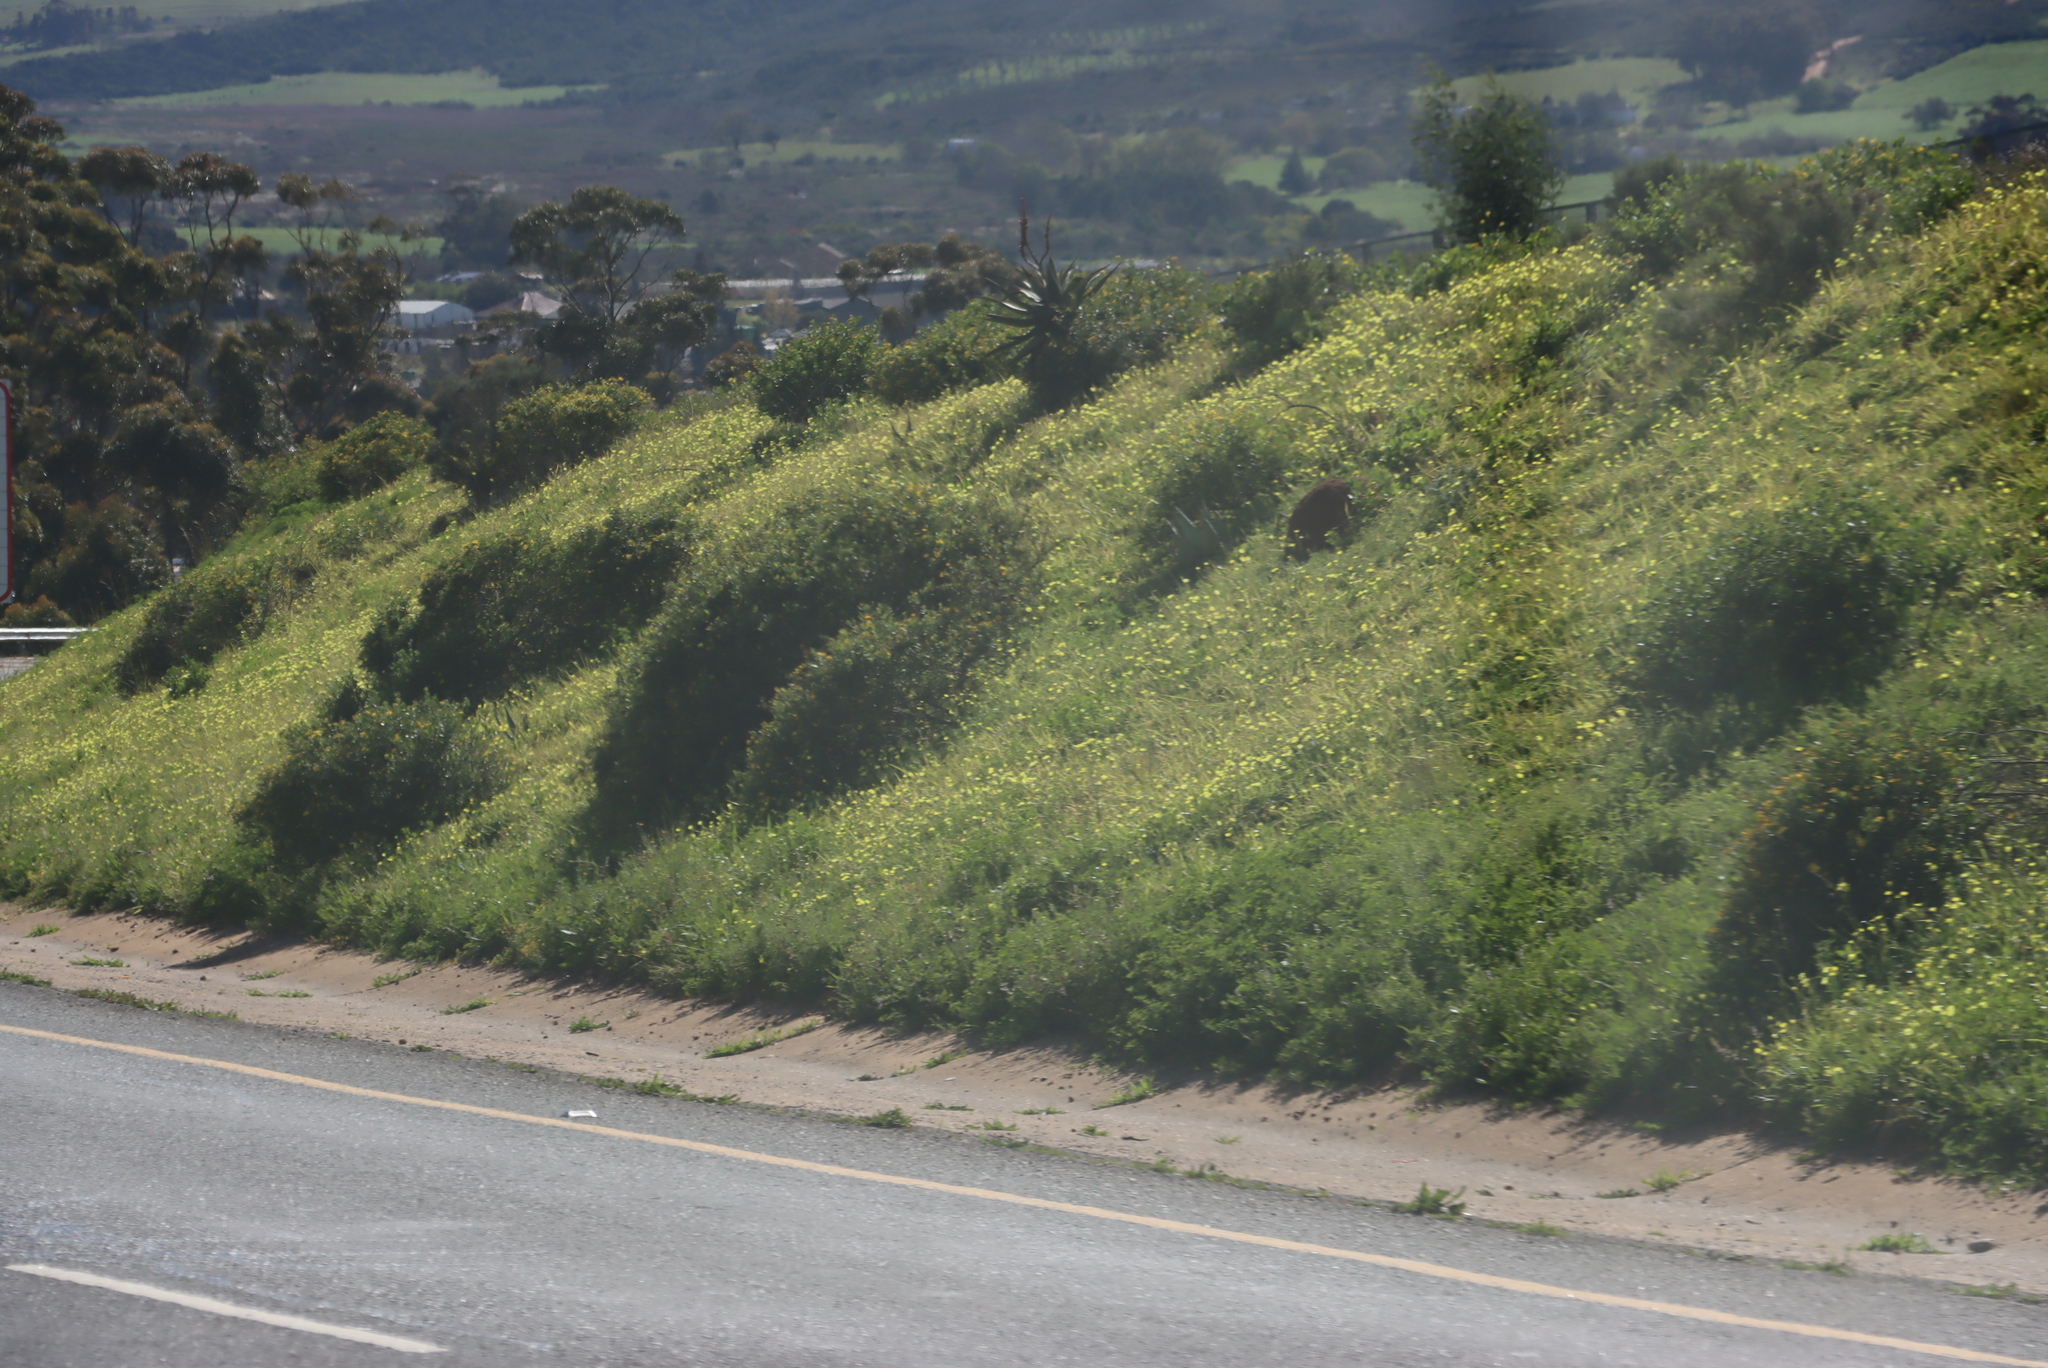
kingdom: Plantae
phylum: Tracheophyta
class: Magnoliopsida
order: Oxalidales
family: Oxalidaceae
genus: Oxalis
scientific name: Oxalis pes-caprae
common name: Bermuda-buttercup
